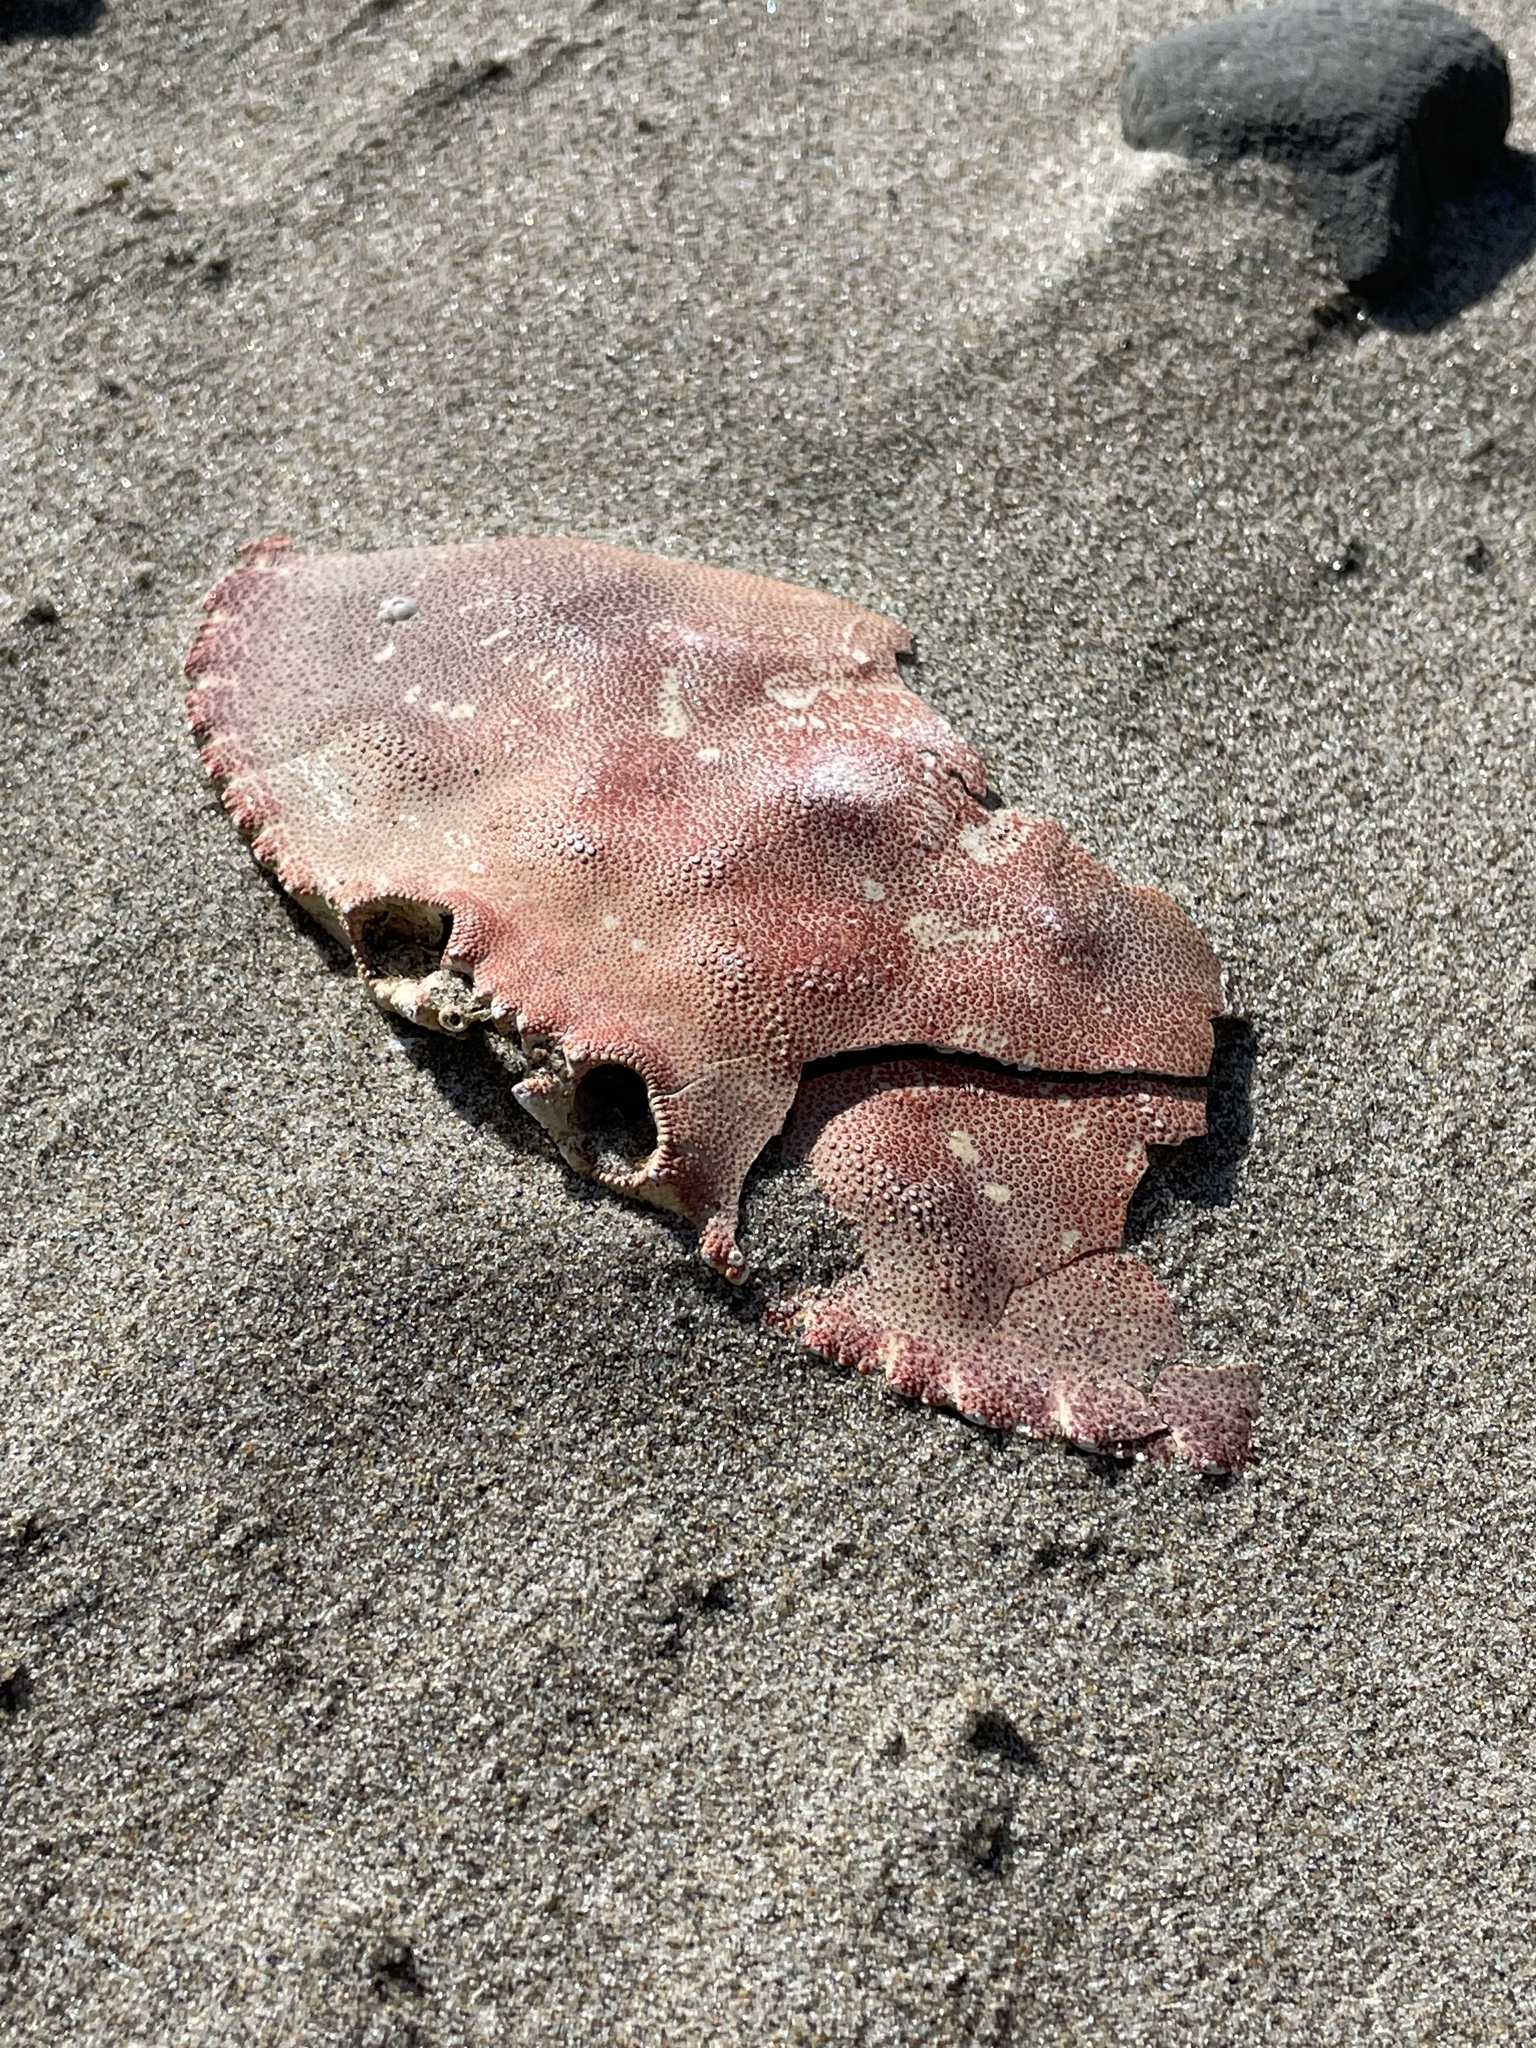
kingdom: Animalia
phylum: Arthropoda
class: Malacostraca
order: Decapoda
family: Cancridae
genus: Metacarcinus
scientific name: Metacarcinus magister
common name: Californian crab
